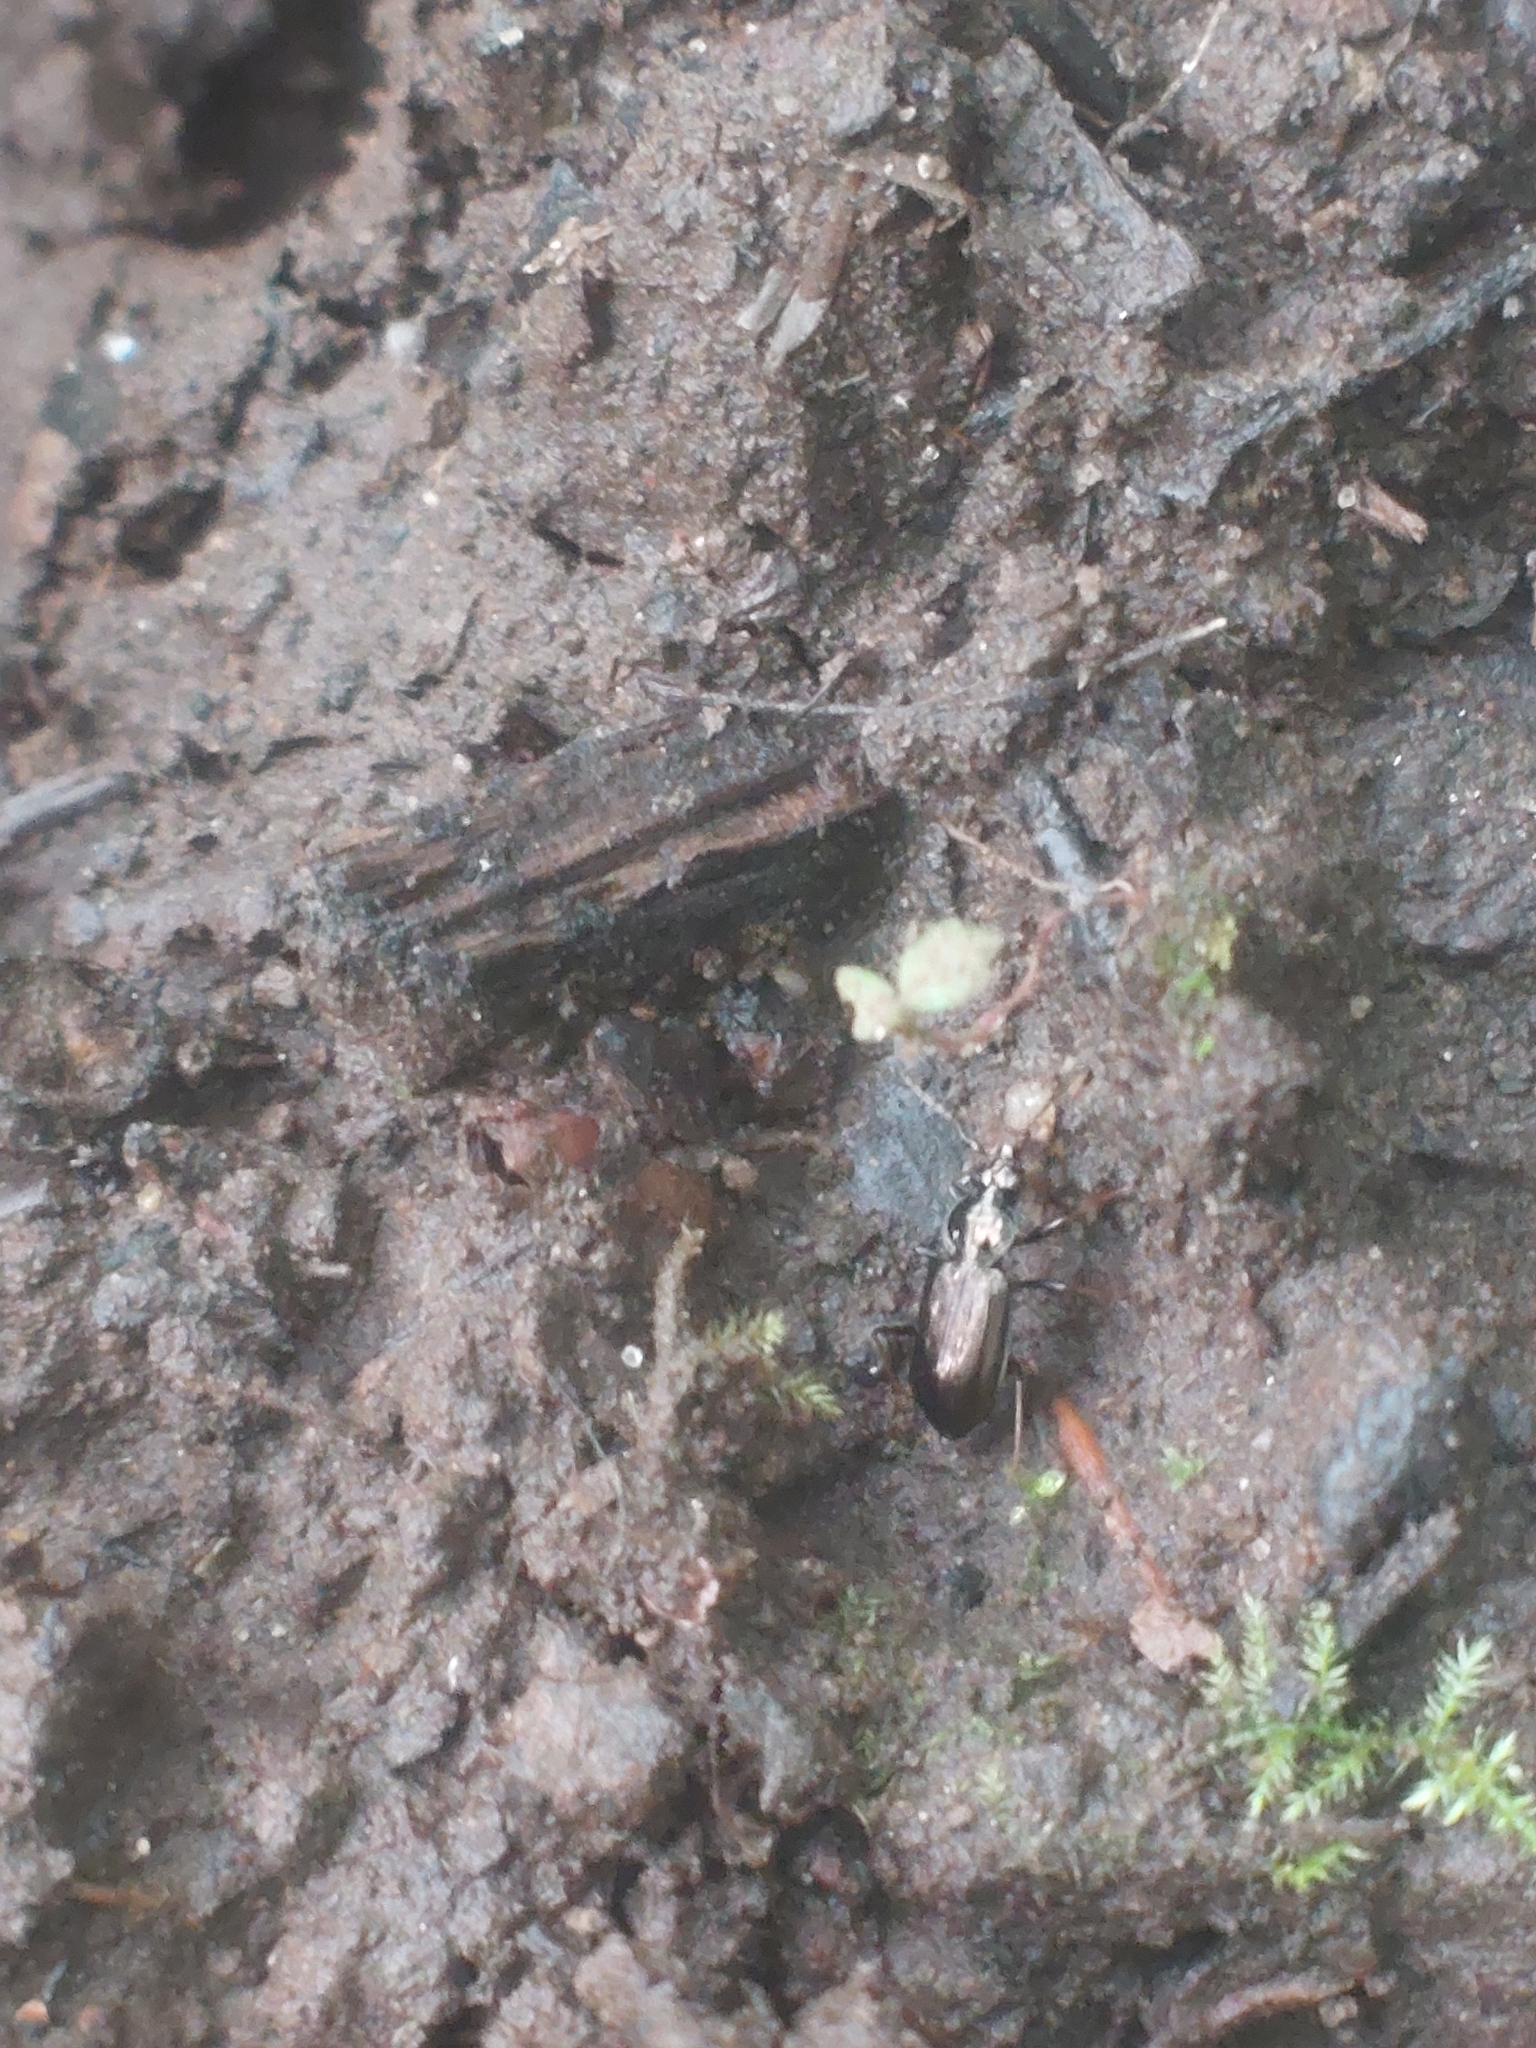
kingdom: Animalia
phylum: Arthropoda
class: Insecta
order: Coleoptera
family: Carabidae
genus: Loricera
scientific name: Loricera pilicornis
